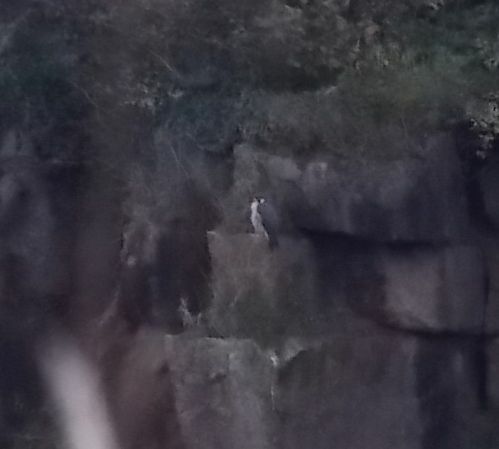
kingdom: Animalia
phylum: Chordata
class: Aves
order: Falconiformes
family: Falconidae
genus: Falco
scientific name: Falco peregrinus
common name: Peregrine falcon
